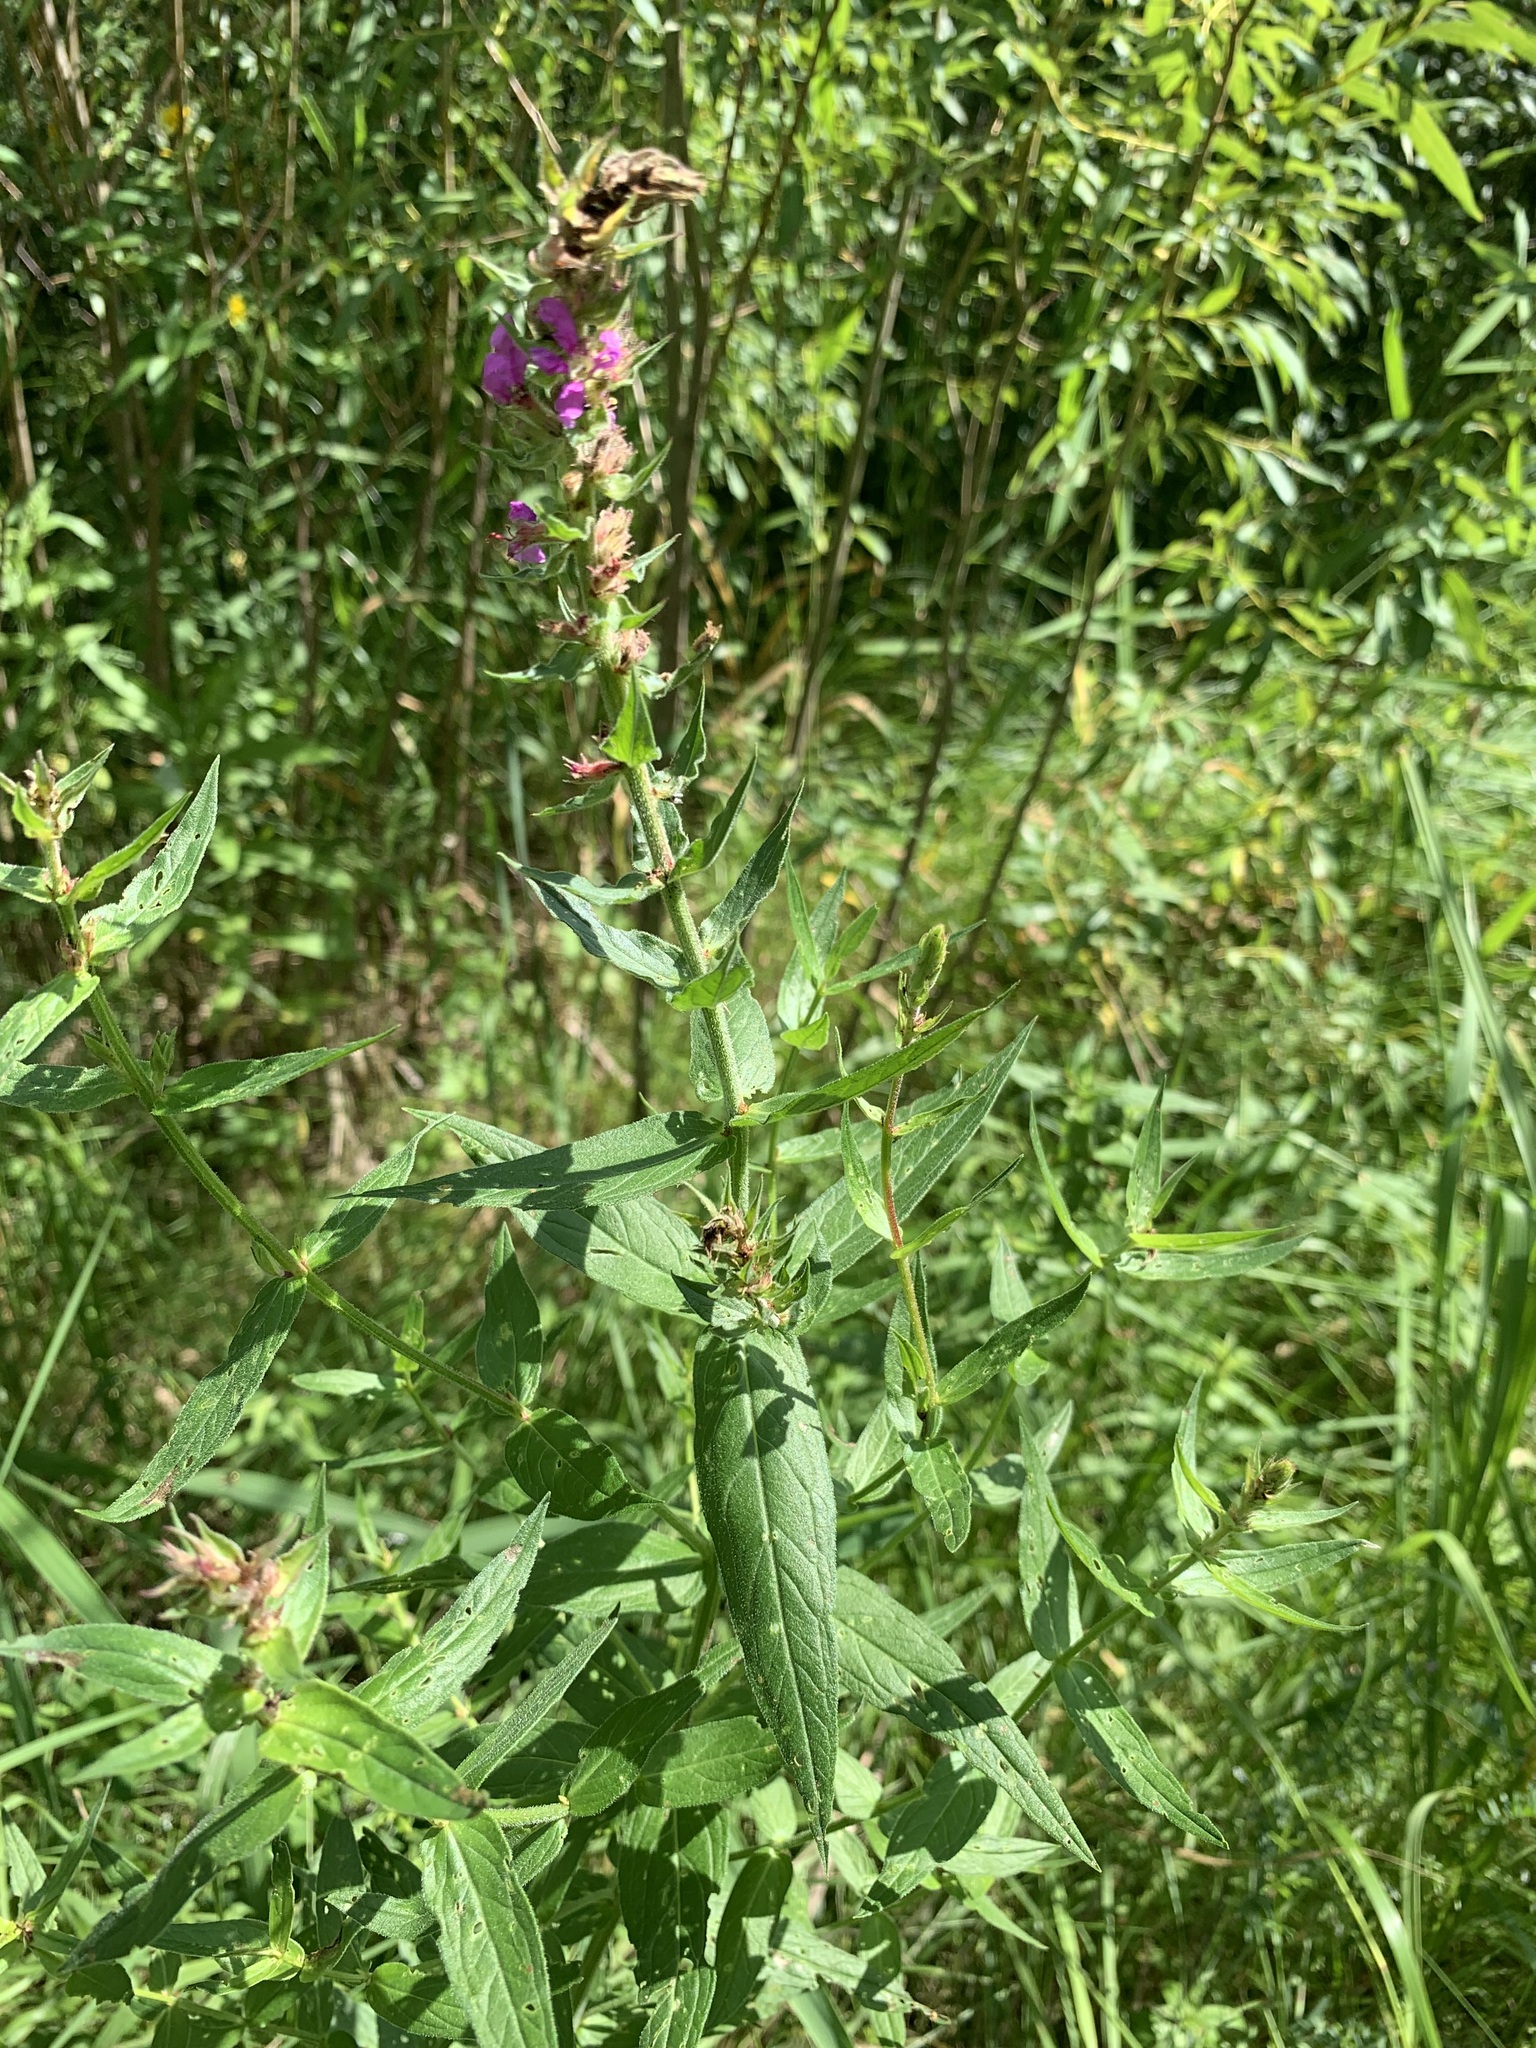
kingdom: Plantae
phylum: Tracheophyta
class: Magnoliopsida
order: Myrtales
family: Lythraceae
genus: Lythrum
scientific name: Lythrum salicaria
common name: Purple loosestrife
